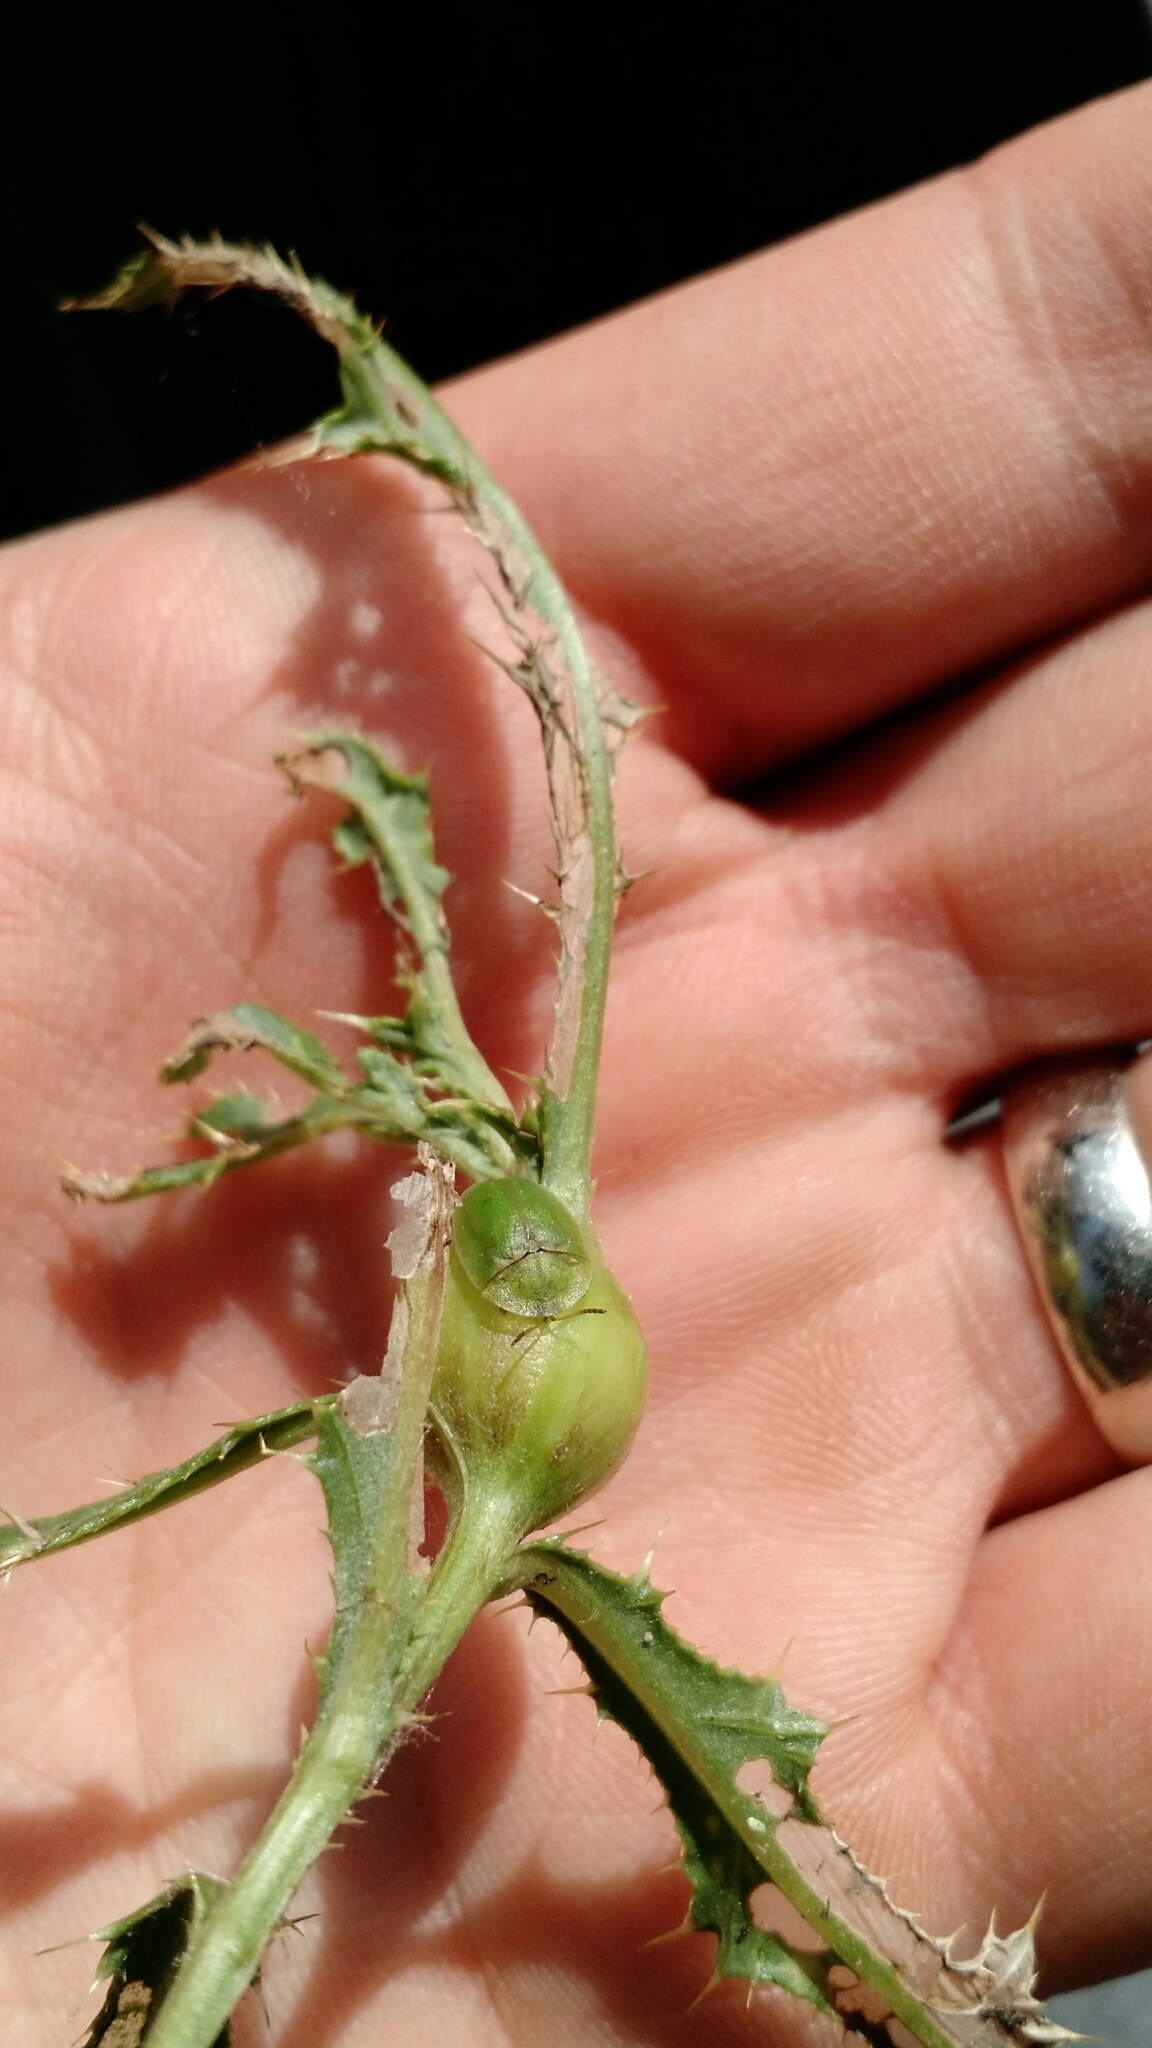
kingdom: Animalia
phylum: Arthropoda
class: Insecta
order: Coleoptera
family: Chrysomelidae
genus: Cassida
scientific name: Cassida rubiginosa
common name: Thistle tortoise beetle
